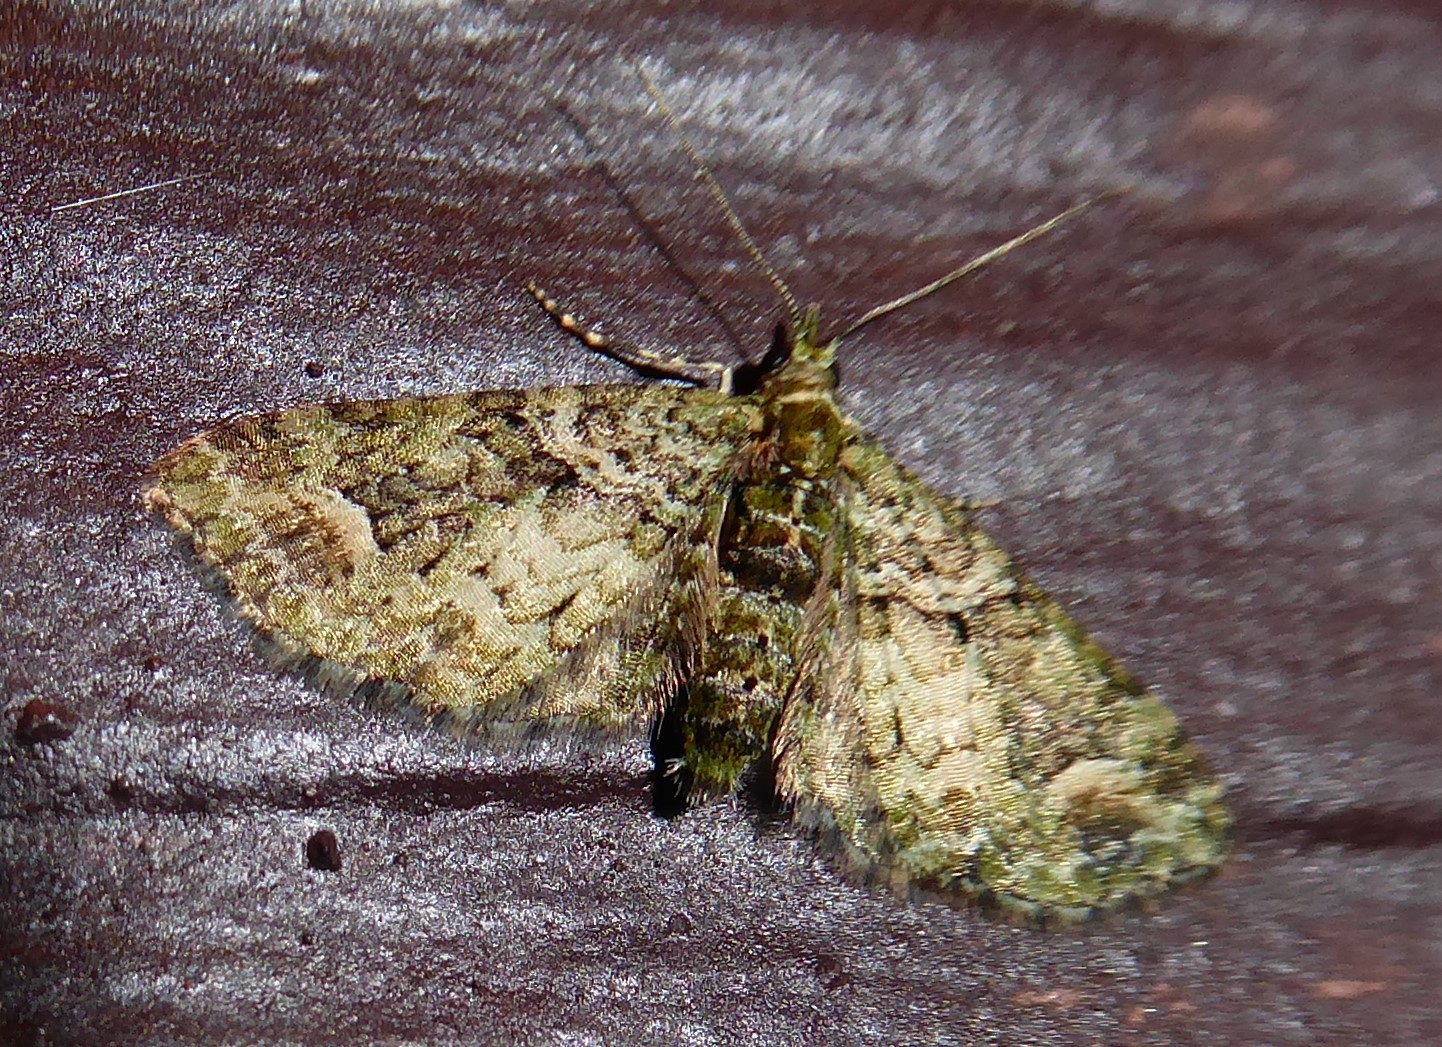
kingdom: Animalia
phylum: Arthropoda
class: Insecta
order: Lepidoptera
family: Geometridae
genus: Idaea
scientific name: Idaea mutanda
